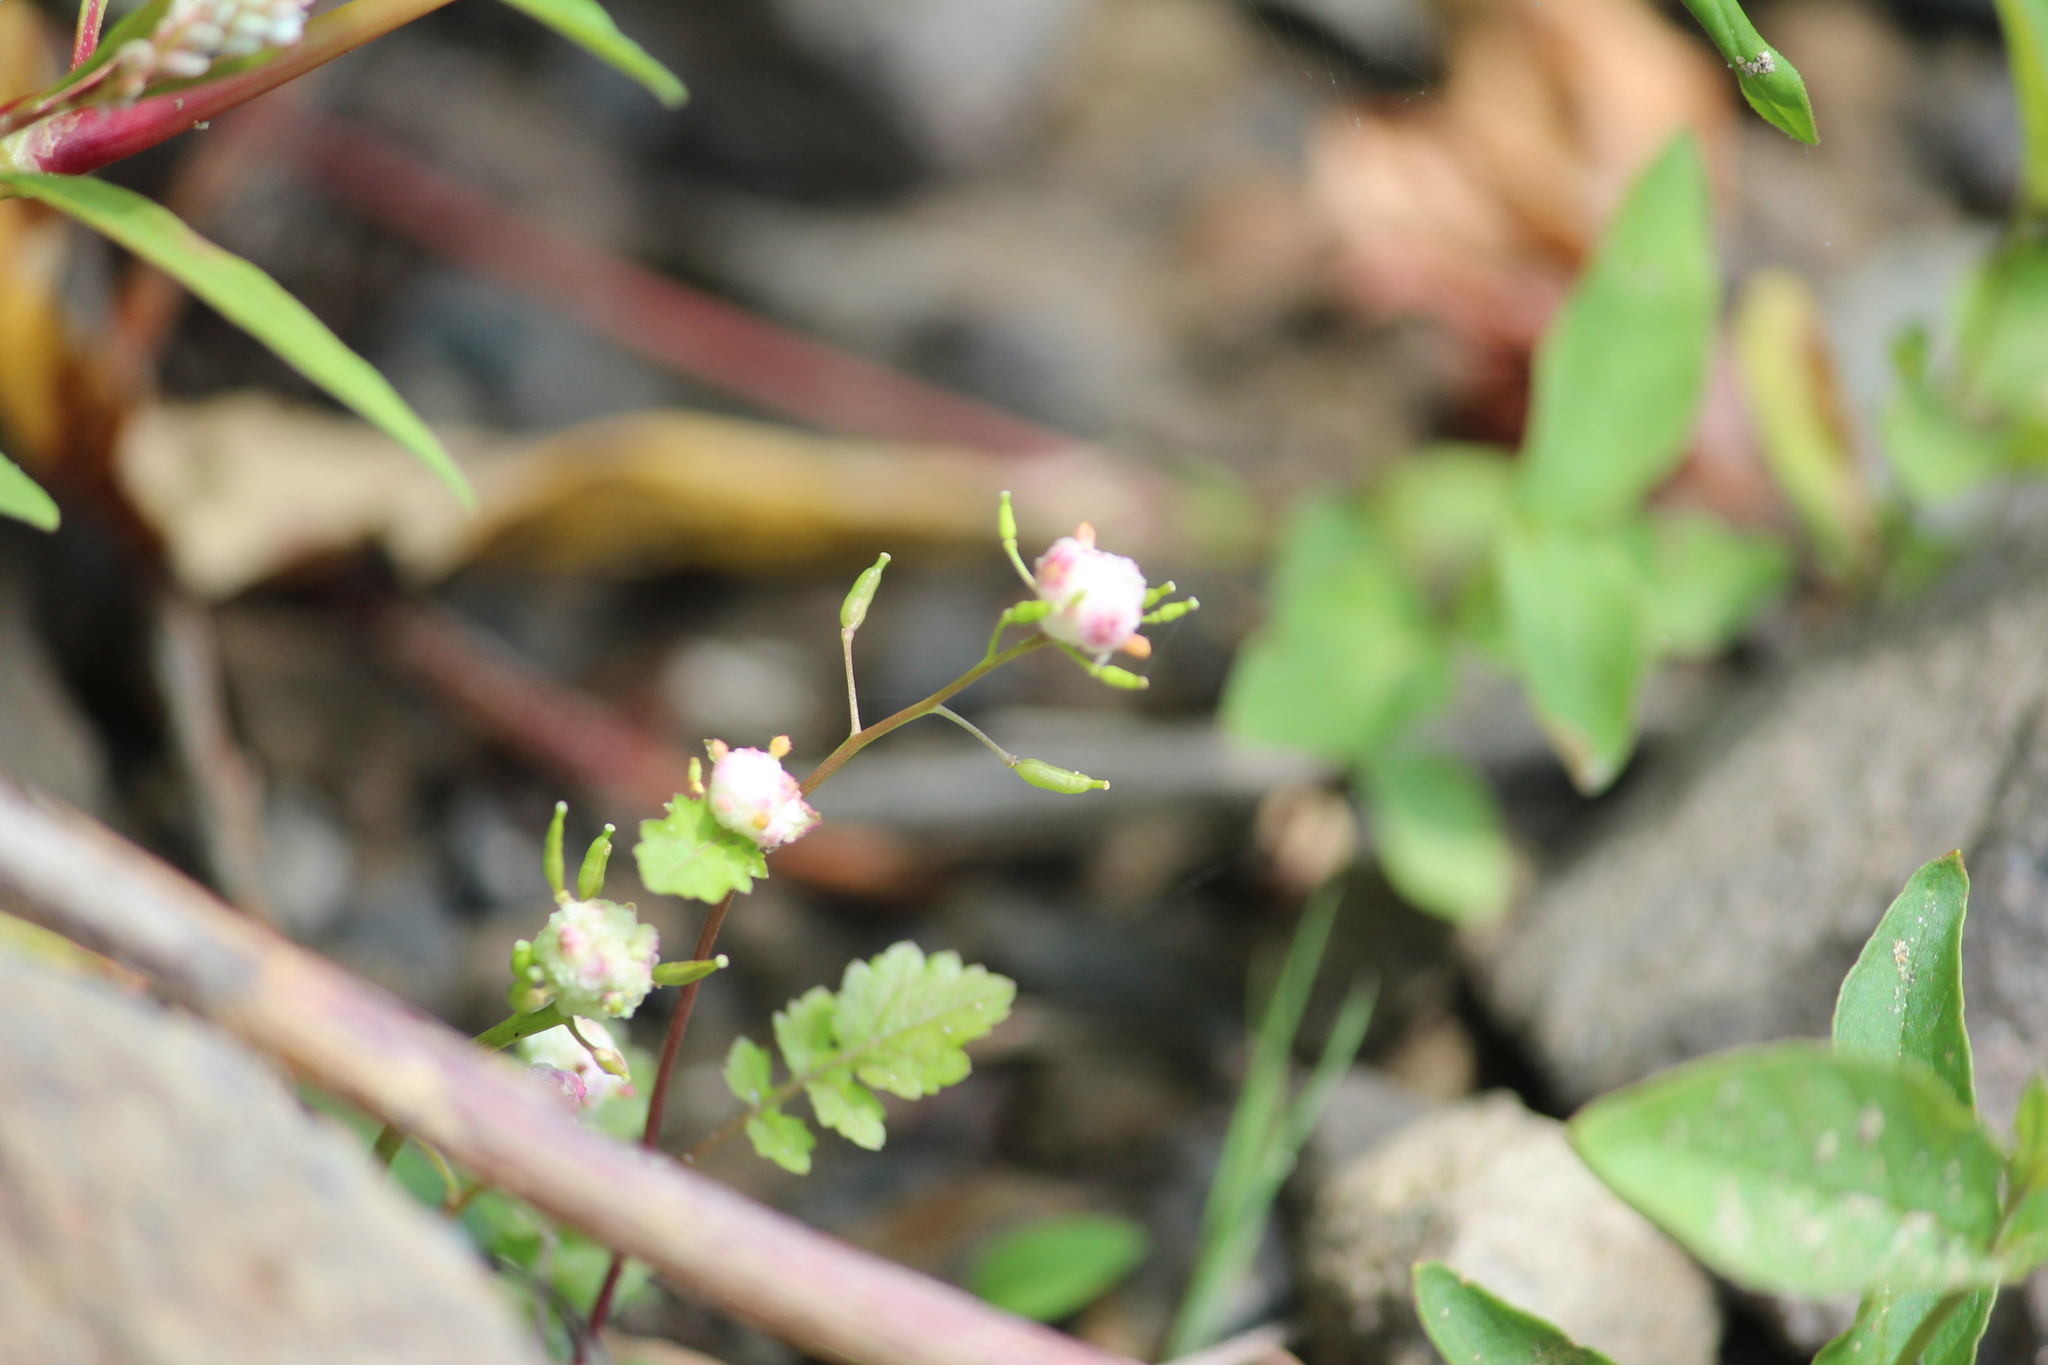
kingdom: Plantae
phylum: Tracheophyta
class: Magnoliopsida
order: Brassicales
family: Brassicaceae
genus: Rorippa
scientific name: Rorippa palustris
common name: Marsh yellow-cress
